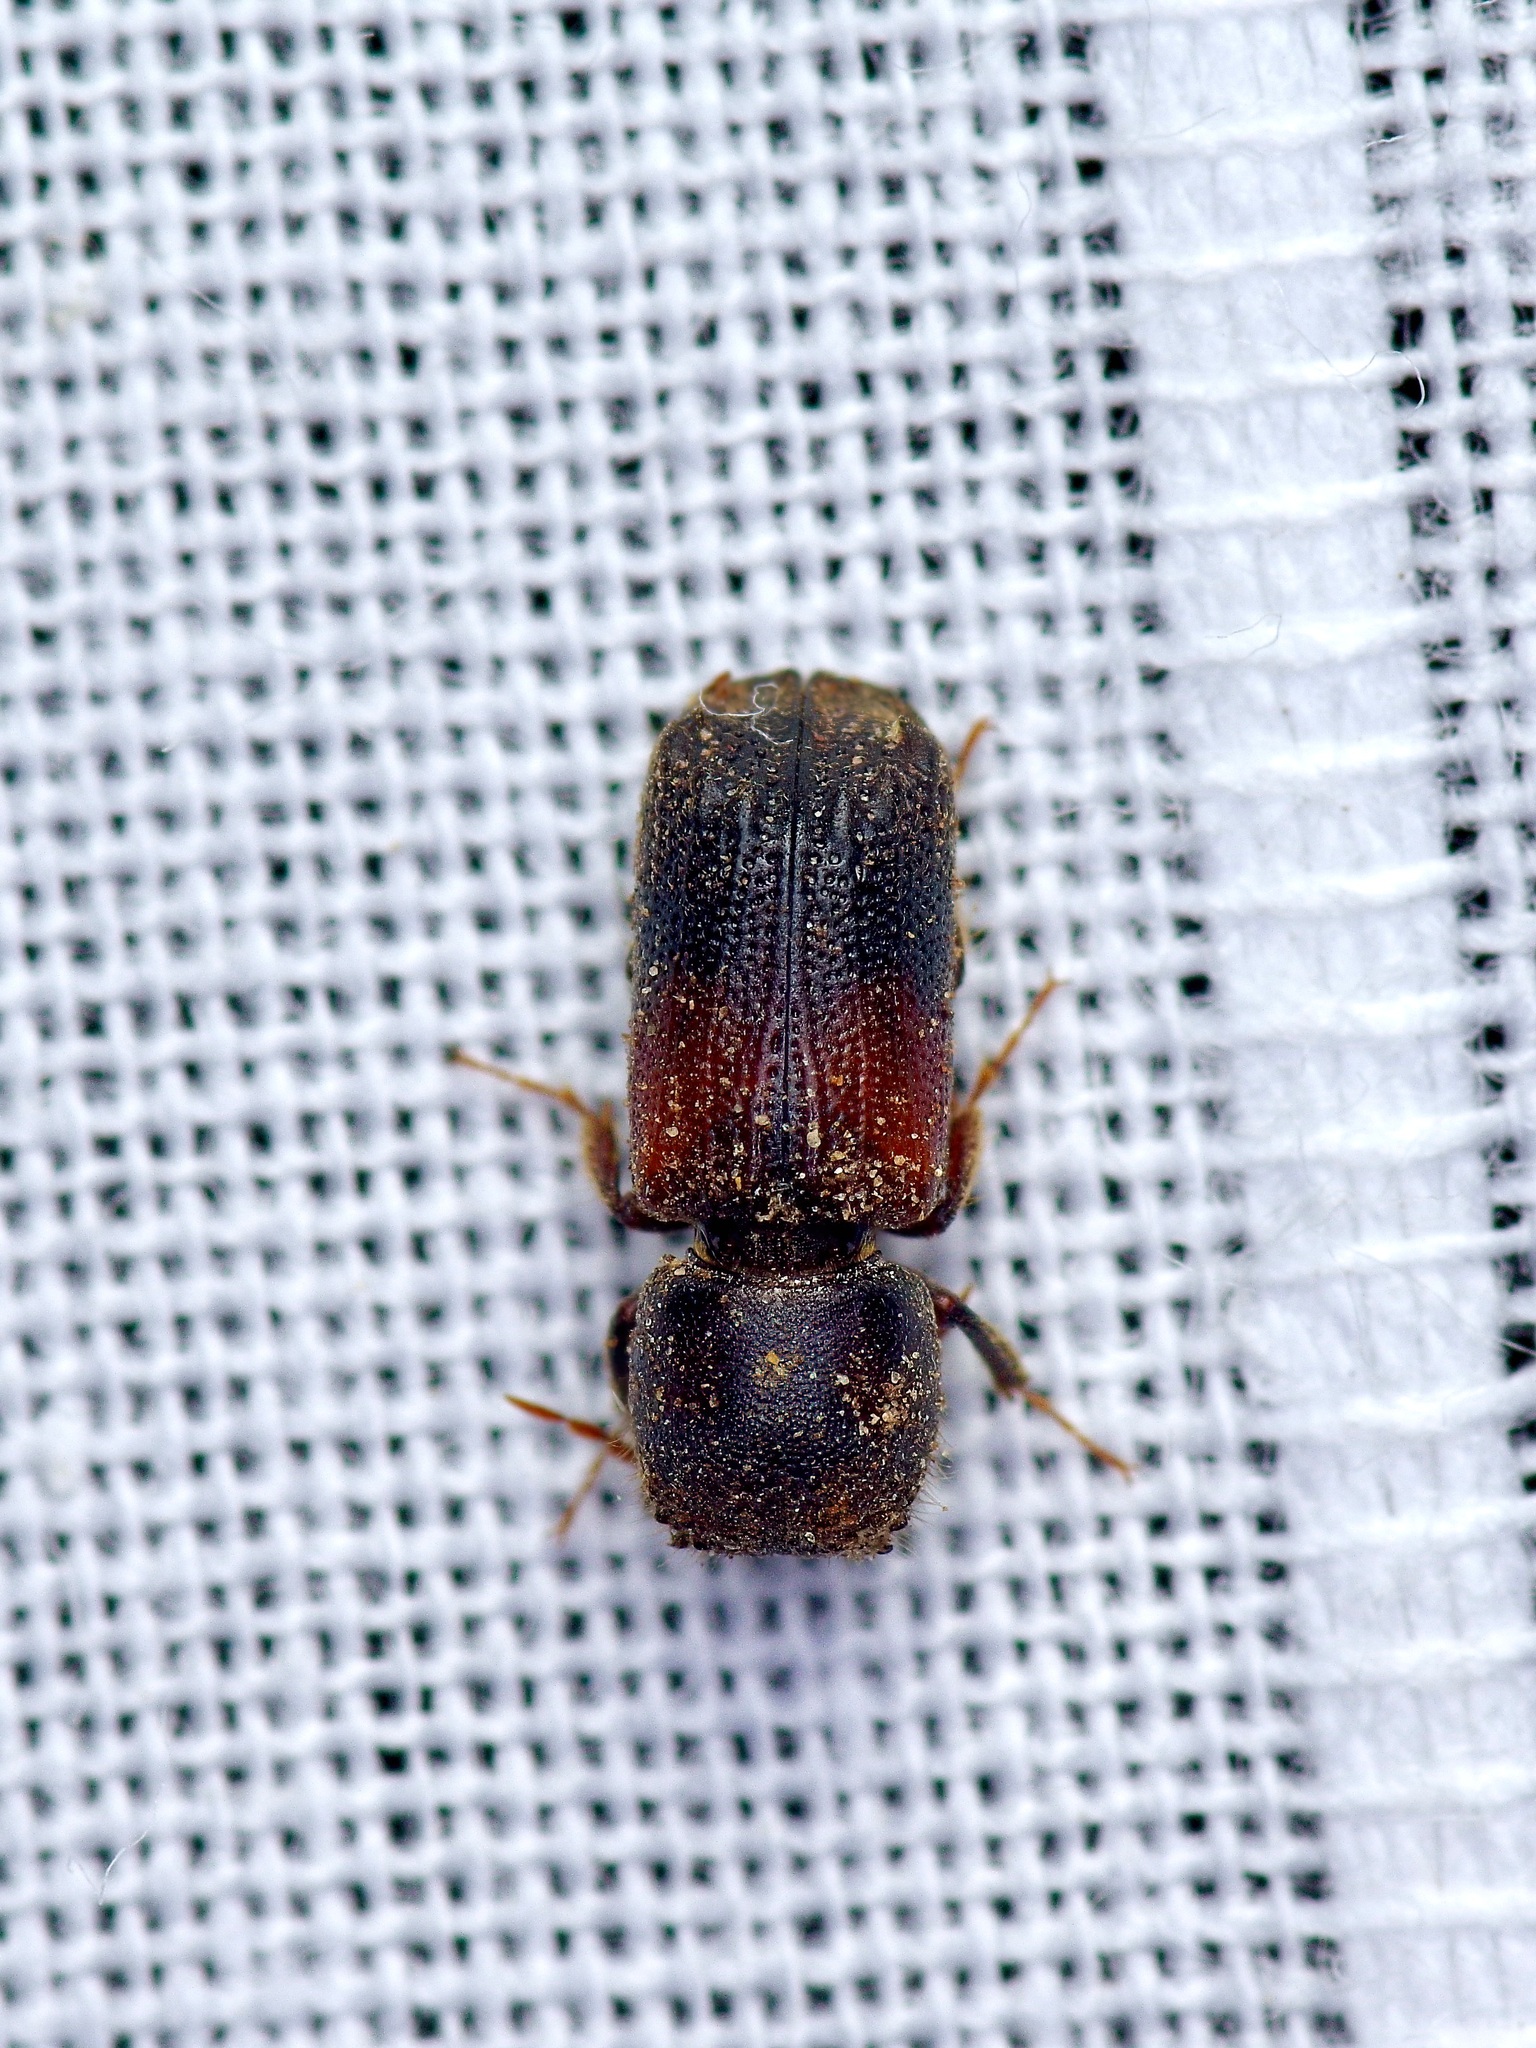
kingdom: Animalia
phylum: Arthropoda
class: Insecta
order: Coleoptera
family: Bostrichidae
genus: Xylobiops
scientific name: Xylobiops basilaris
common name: Red-shouldered bostrichid
